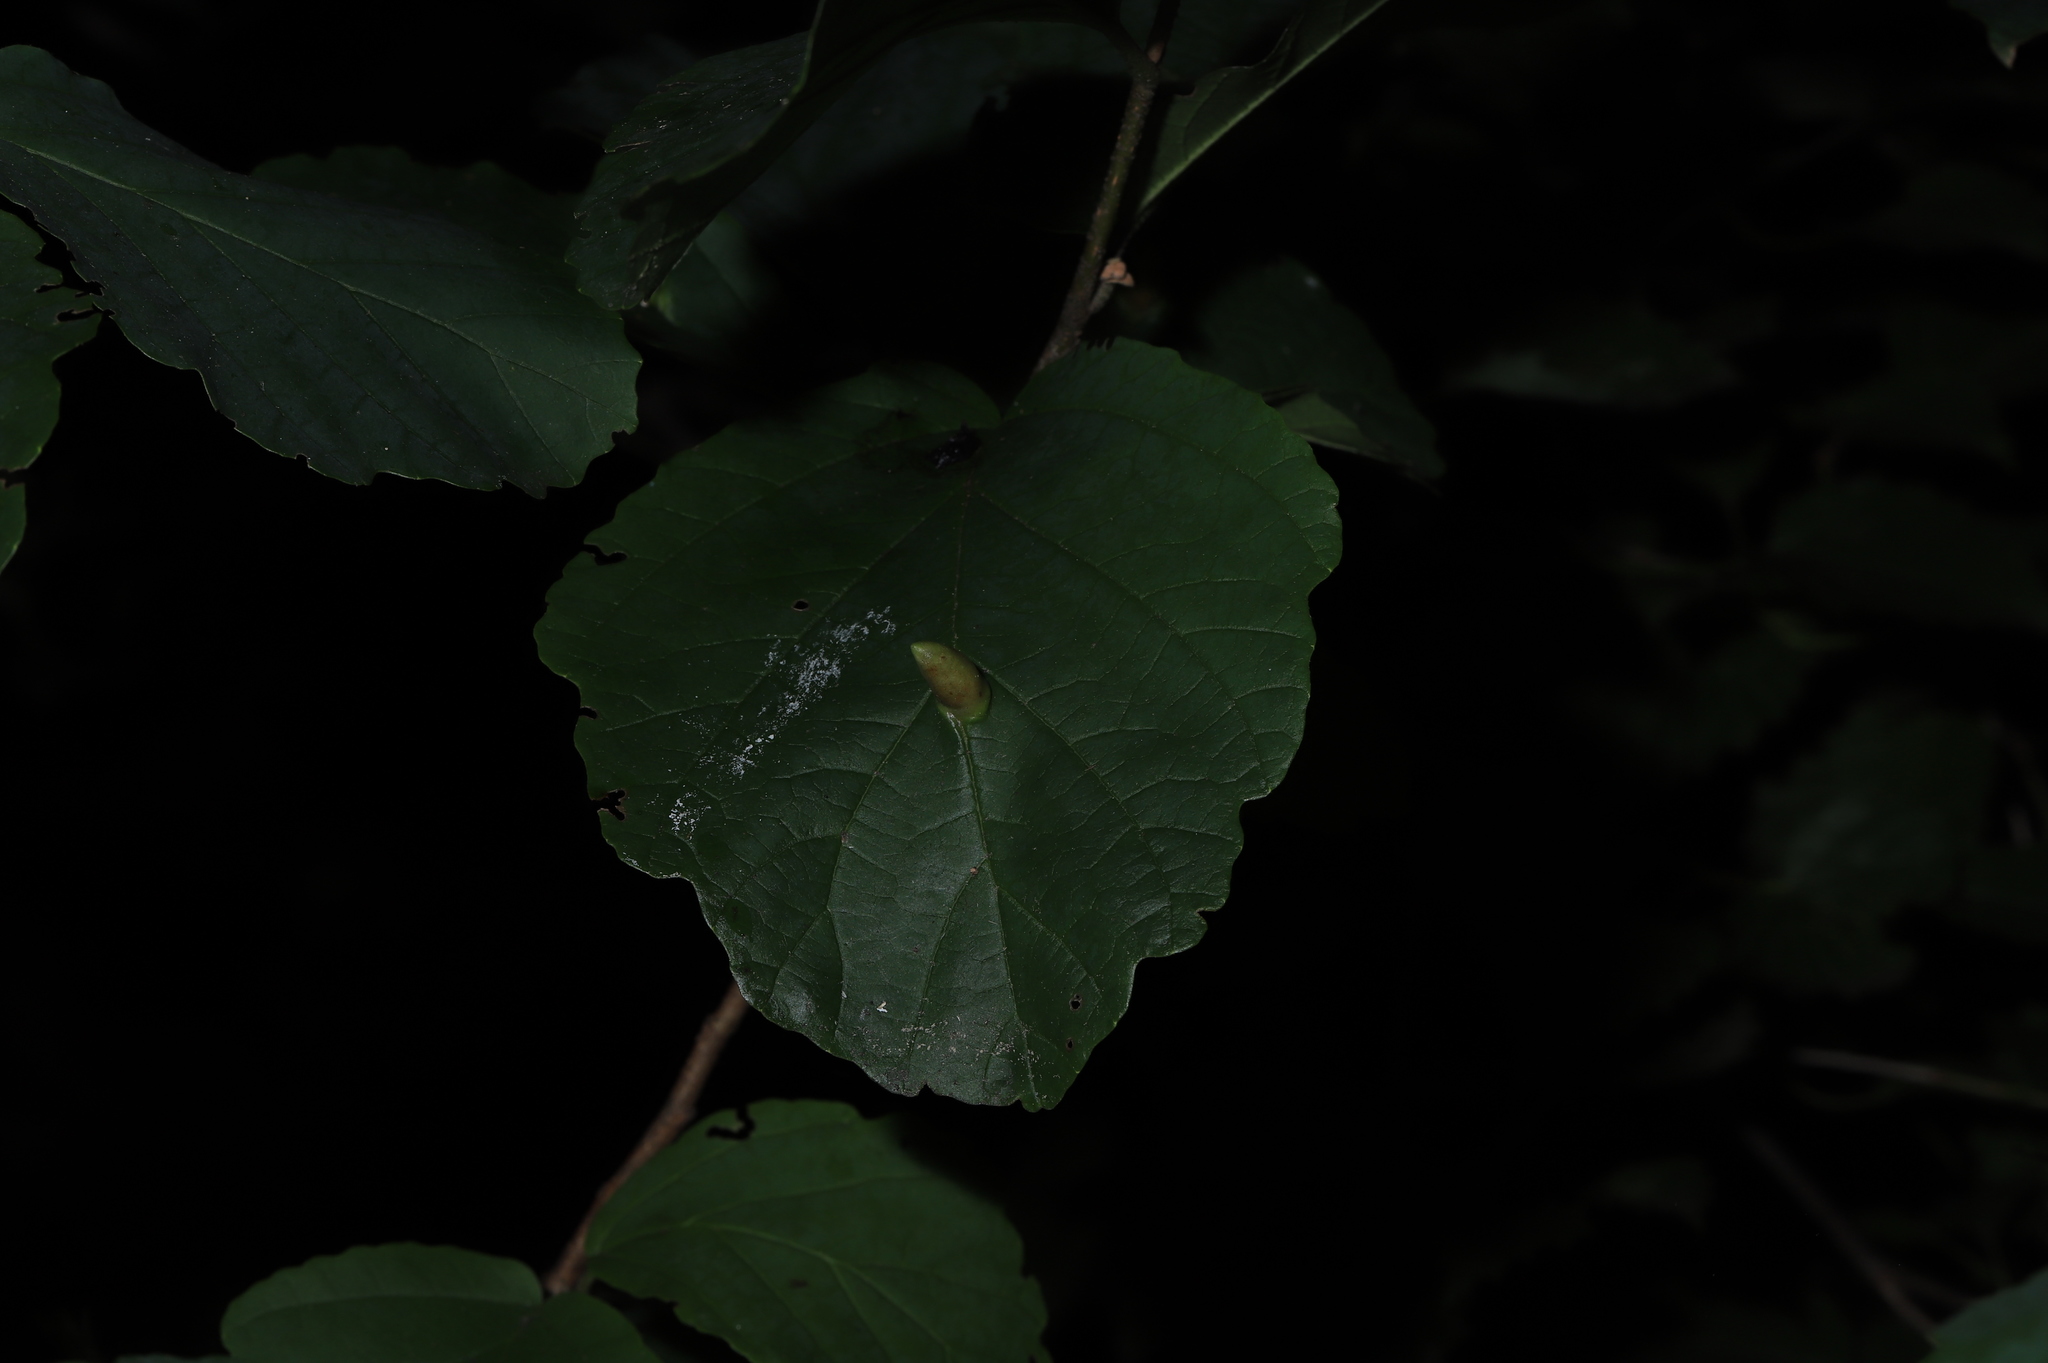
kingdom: Animalia
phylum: Arthropoda
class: Insecta
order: Hemiptera
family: Aphididae
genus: Hormaphis
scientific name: Hormaphis hamamelidis
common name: Witch-hazel cone gall aphid
